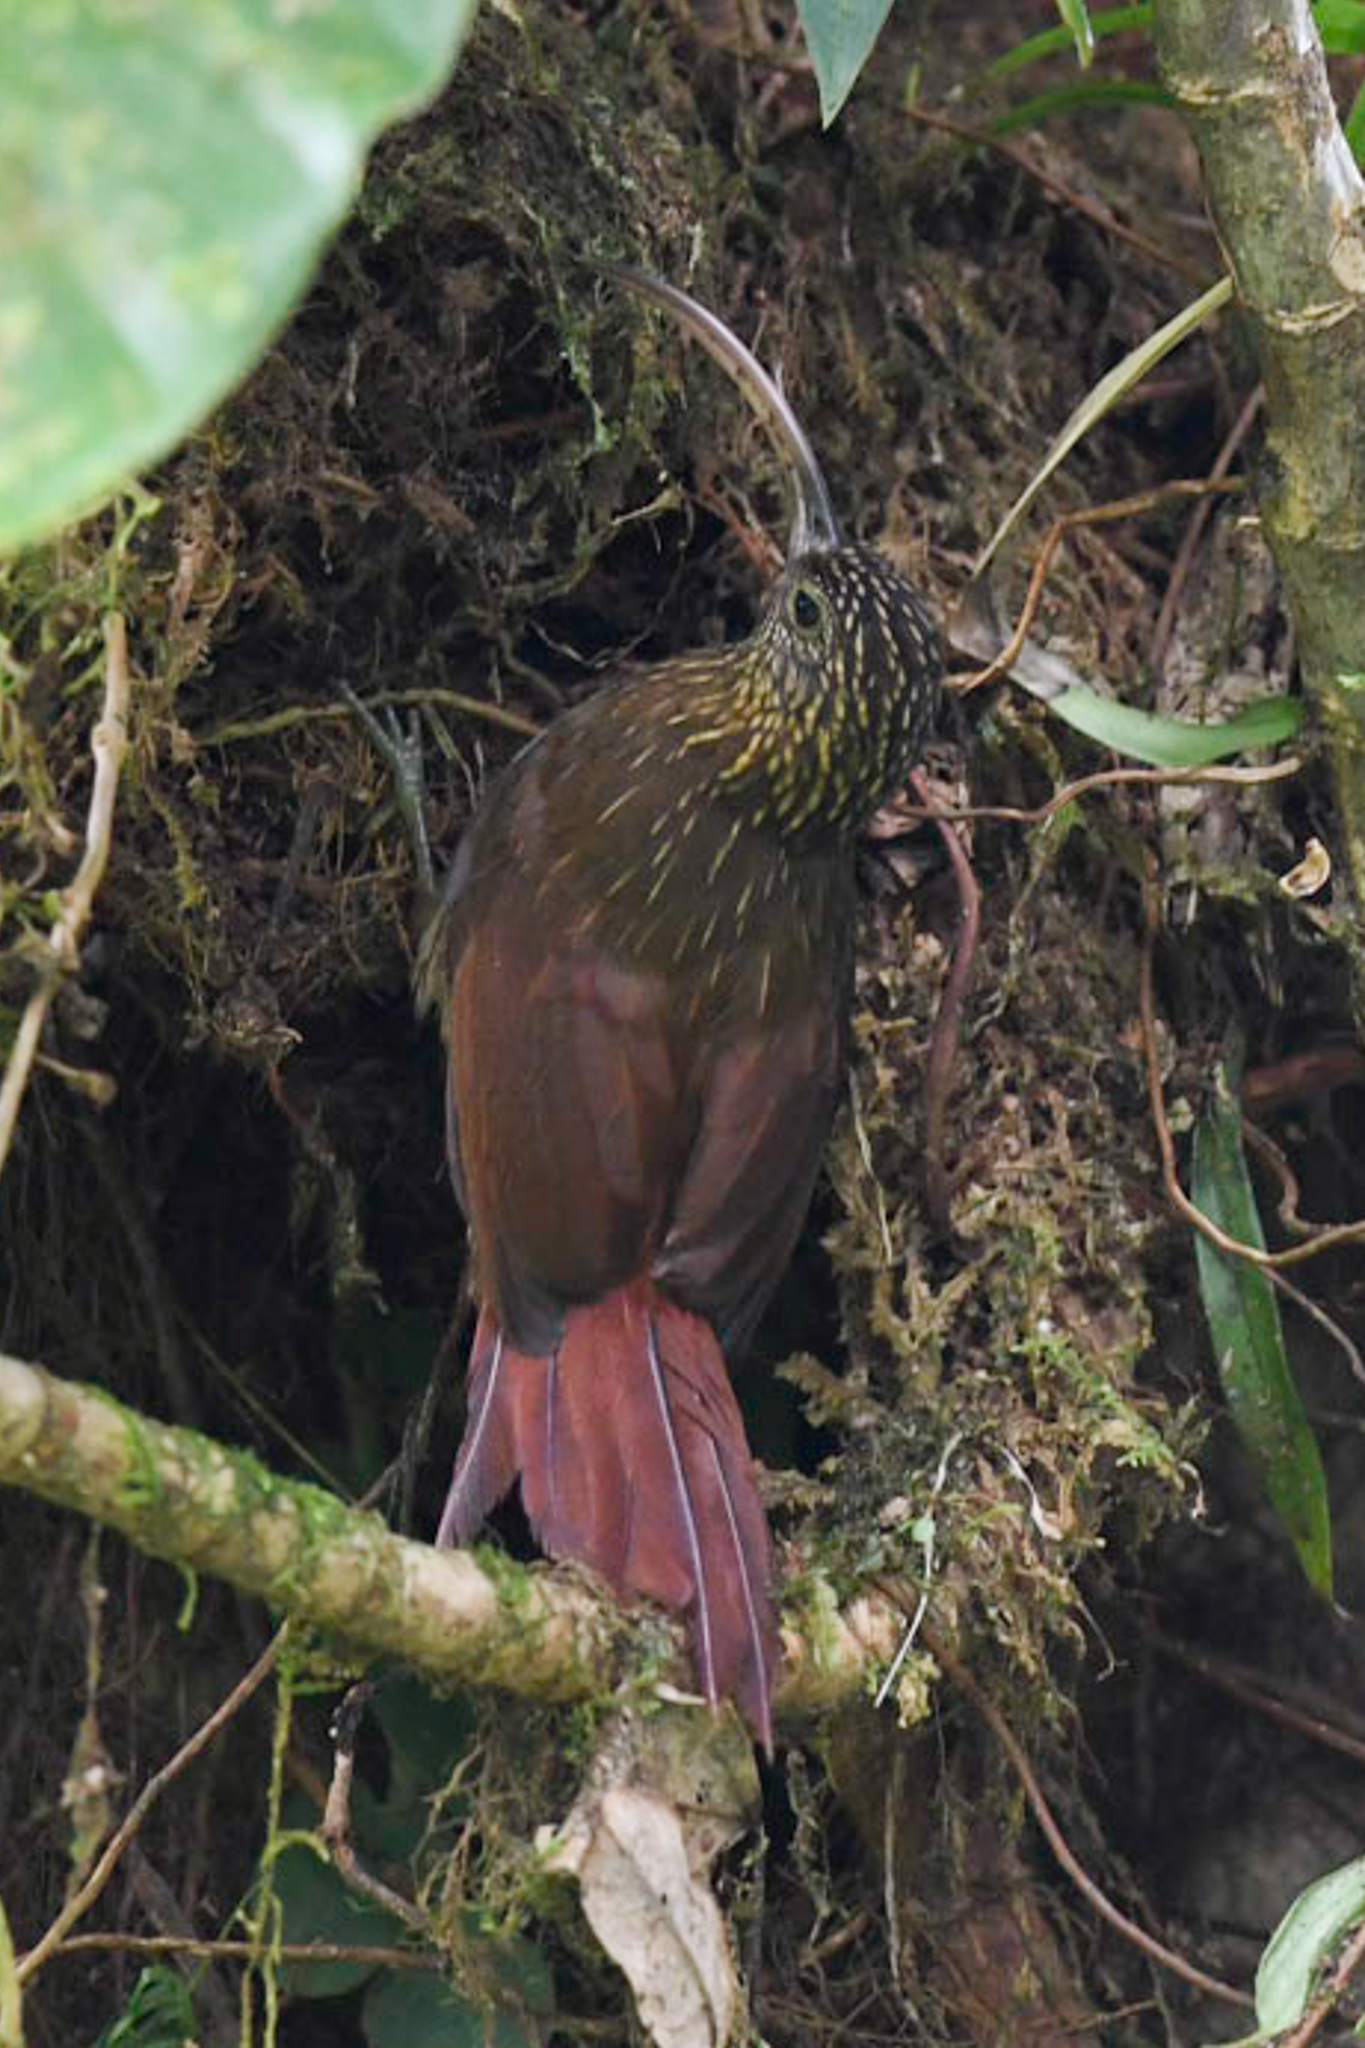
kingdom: Animalia
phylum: Chordata
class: Aves
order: Passeriformes
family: Furnariidae
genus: Campylorhamphus
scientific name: Campylorhamphus pusillus
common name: Brown-billed scythebill
